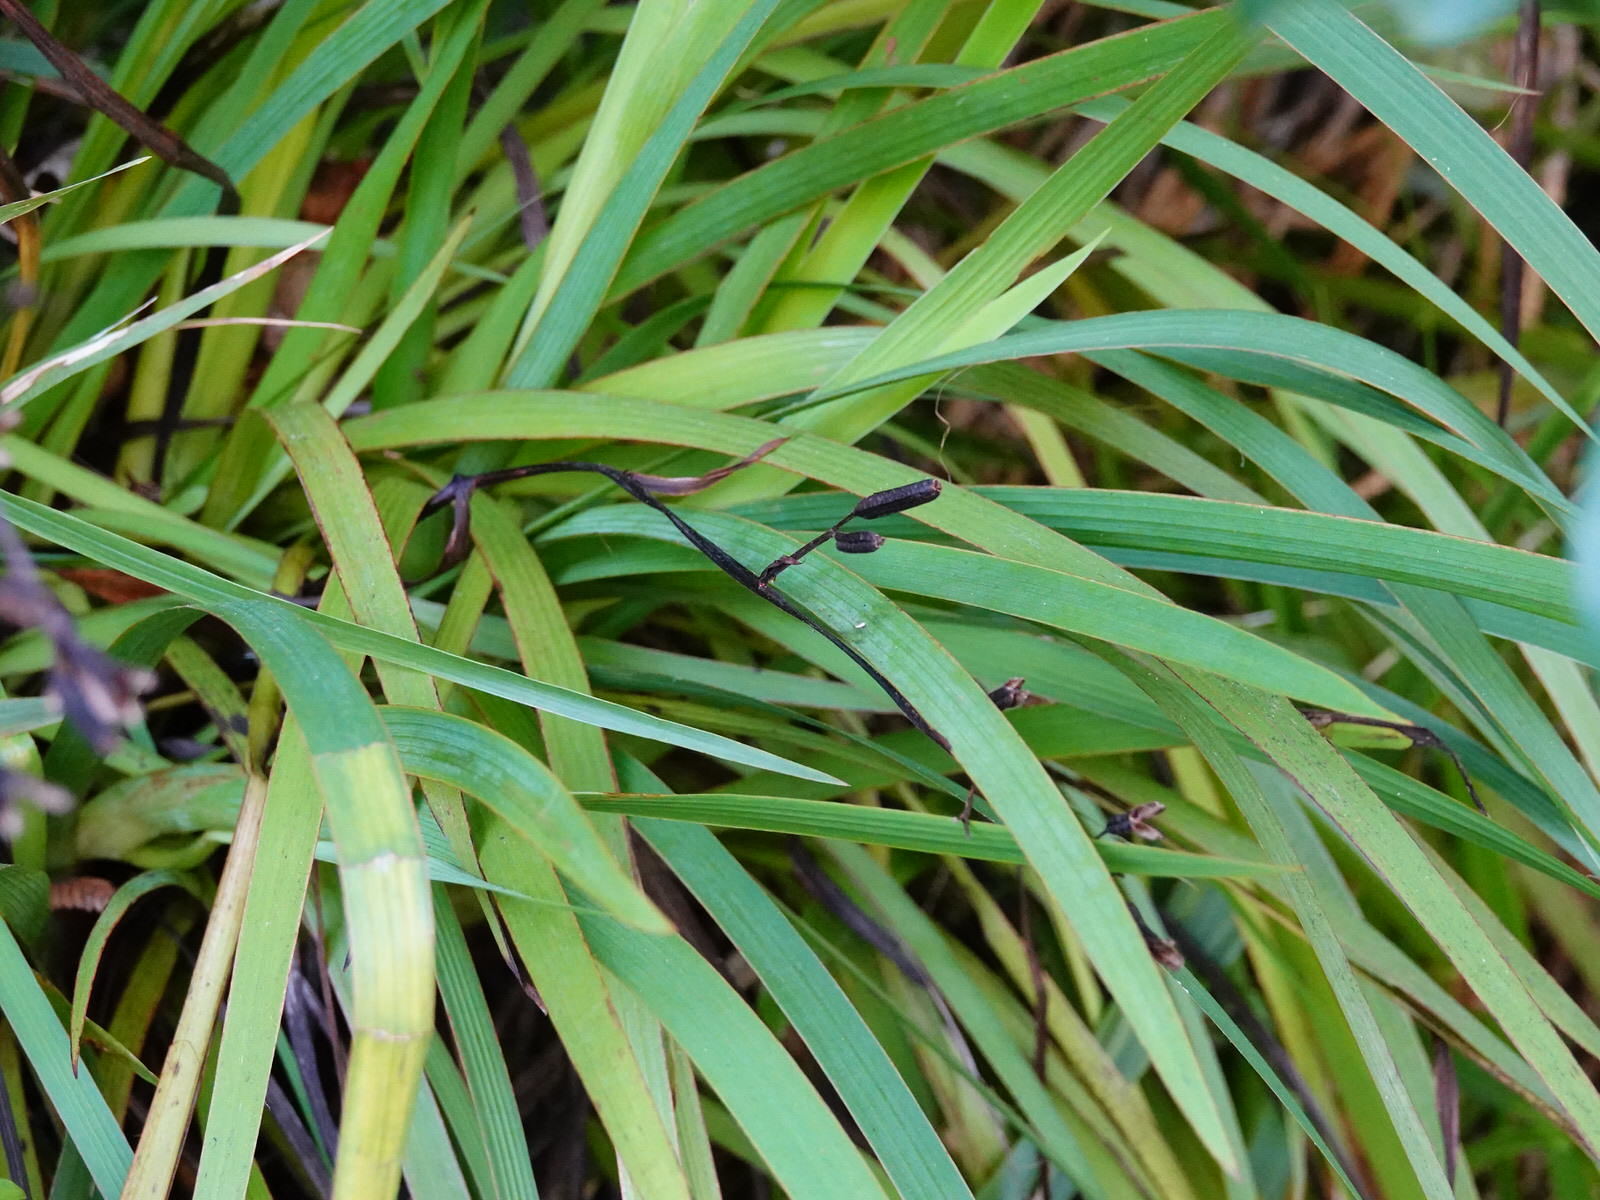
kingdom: Plantae
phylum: Tracheophyta
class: Liliopsida
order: Asparagales
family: Iridaceae
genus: Aristea
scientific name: Aristea ecklonii
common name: Blue corn-lily
